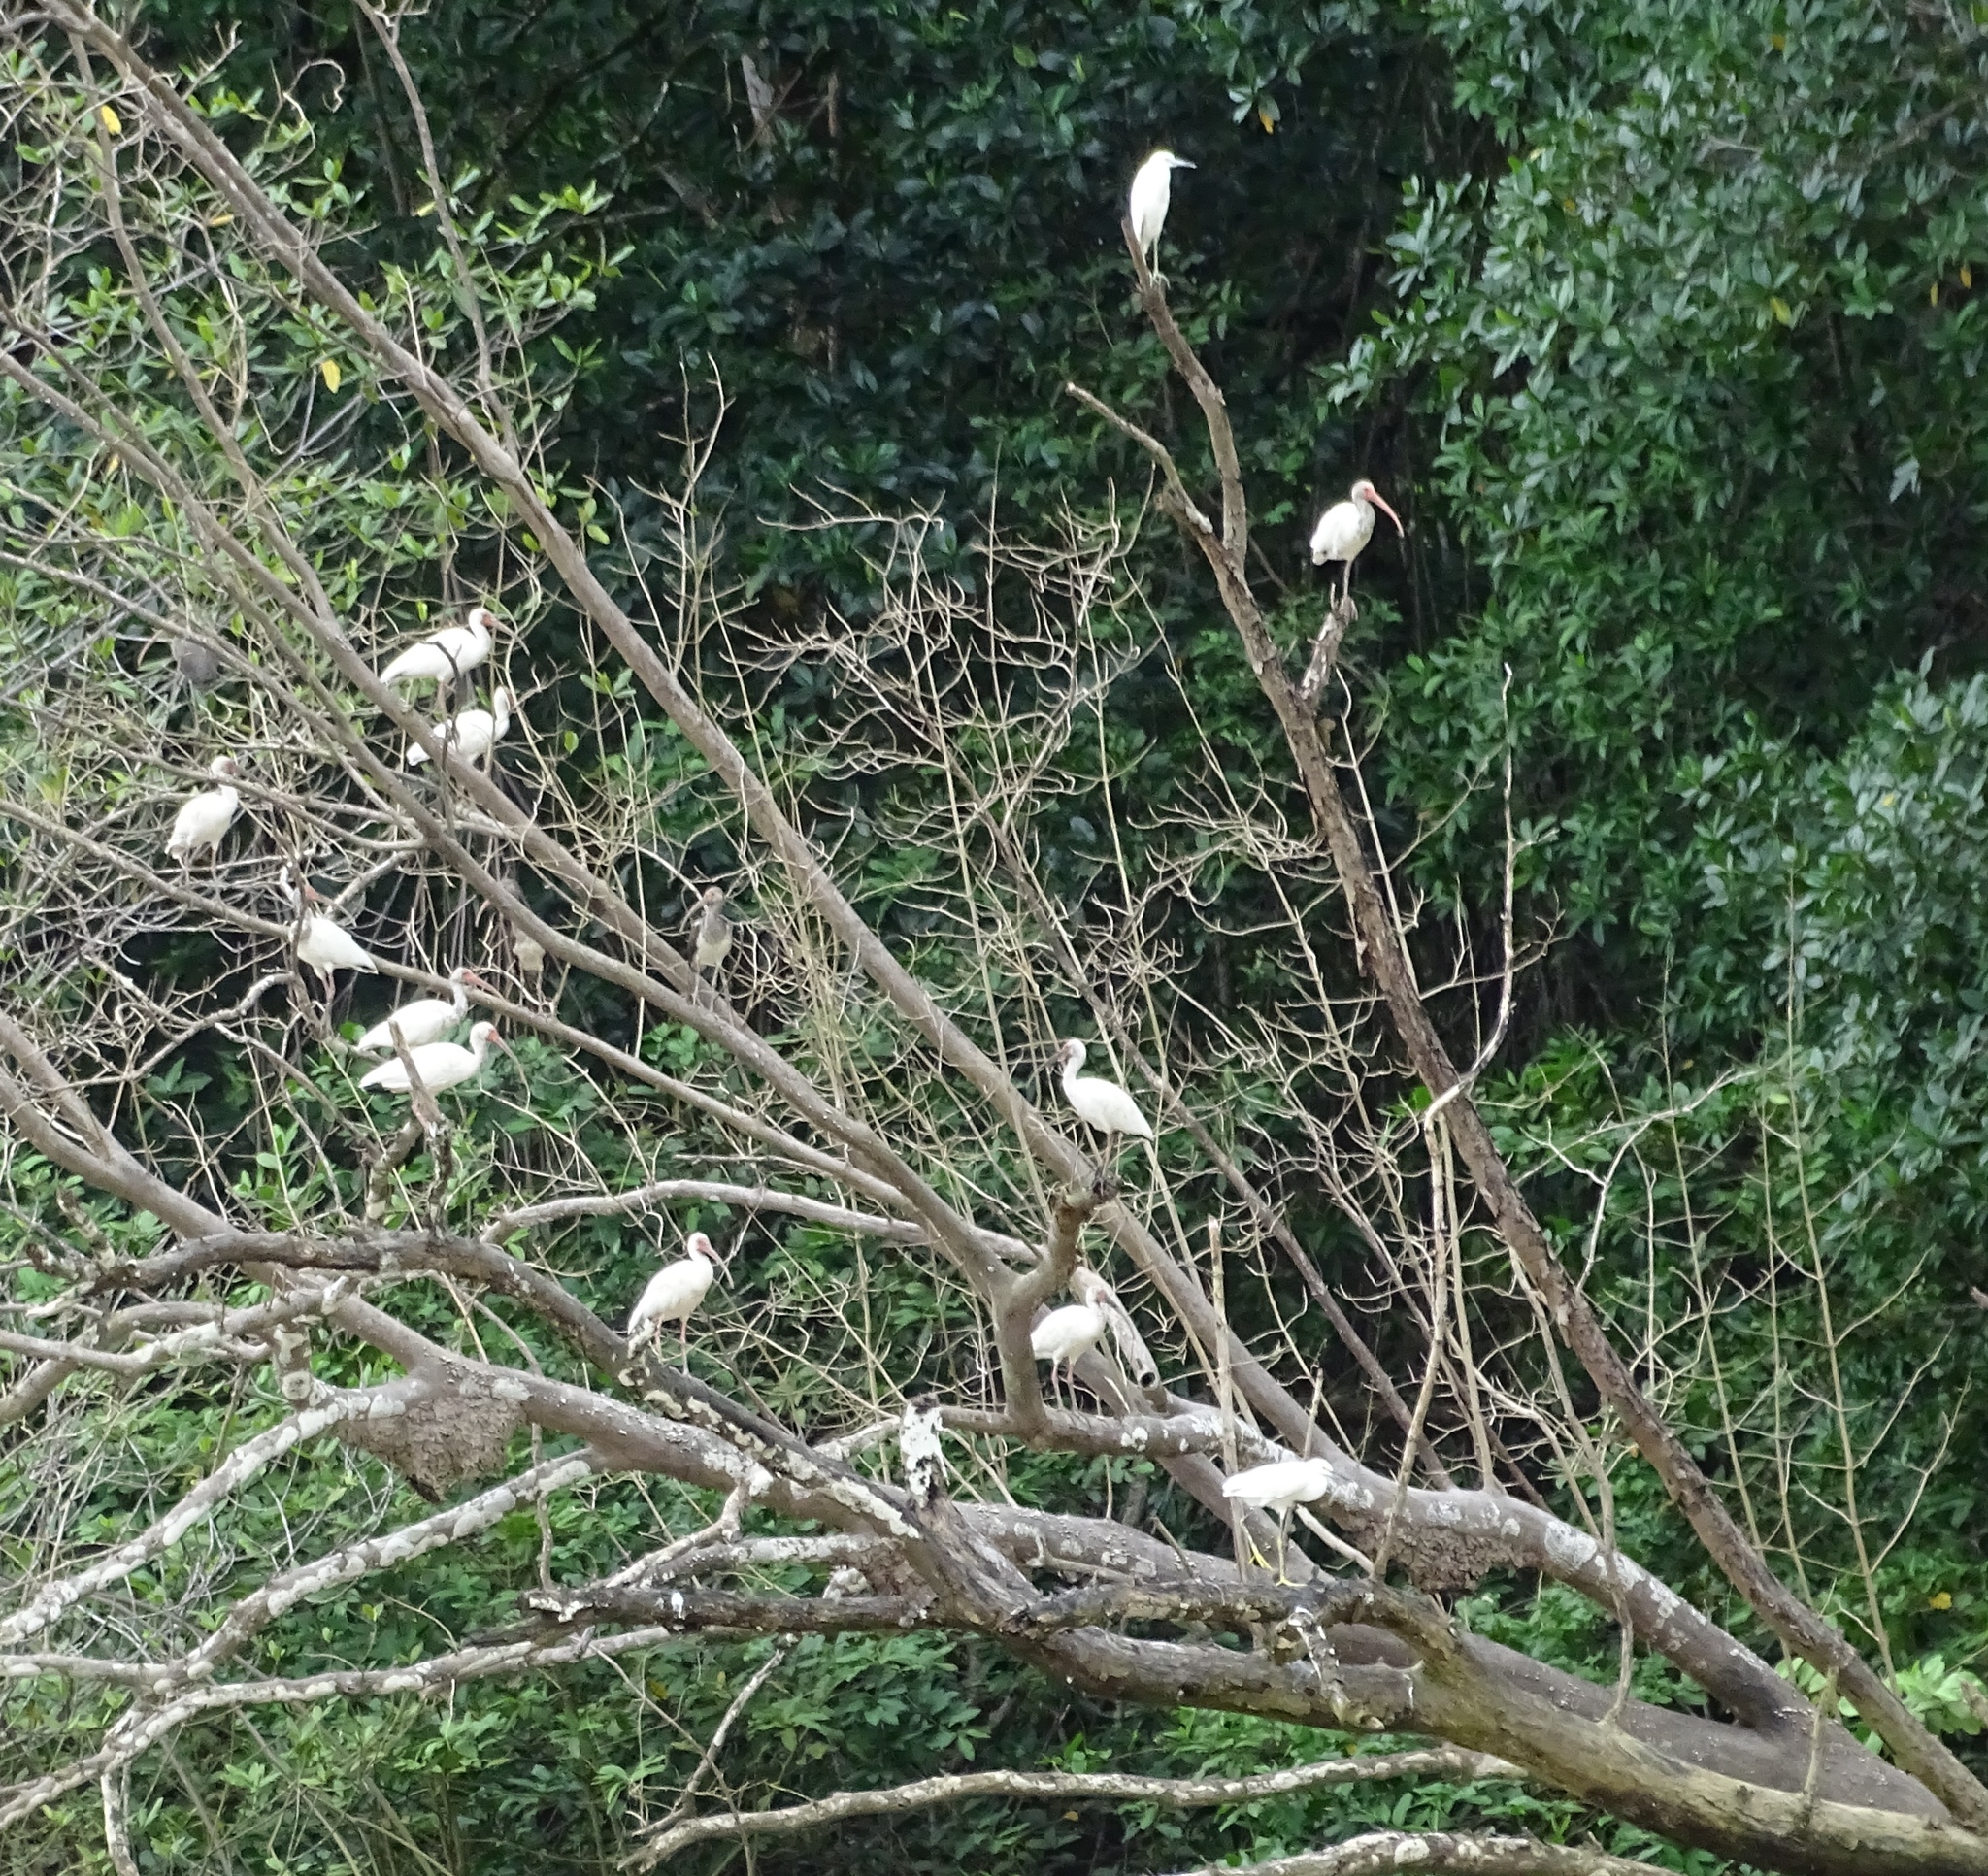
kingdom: Animalia
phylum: Chordata
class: Aves
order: Pelecaniformes
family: Threskiornithidae
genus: Eudocimus
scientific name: Eudocimus albus
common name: White ibis
